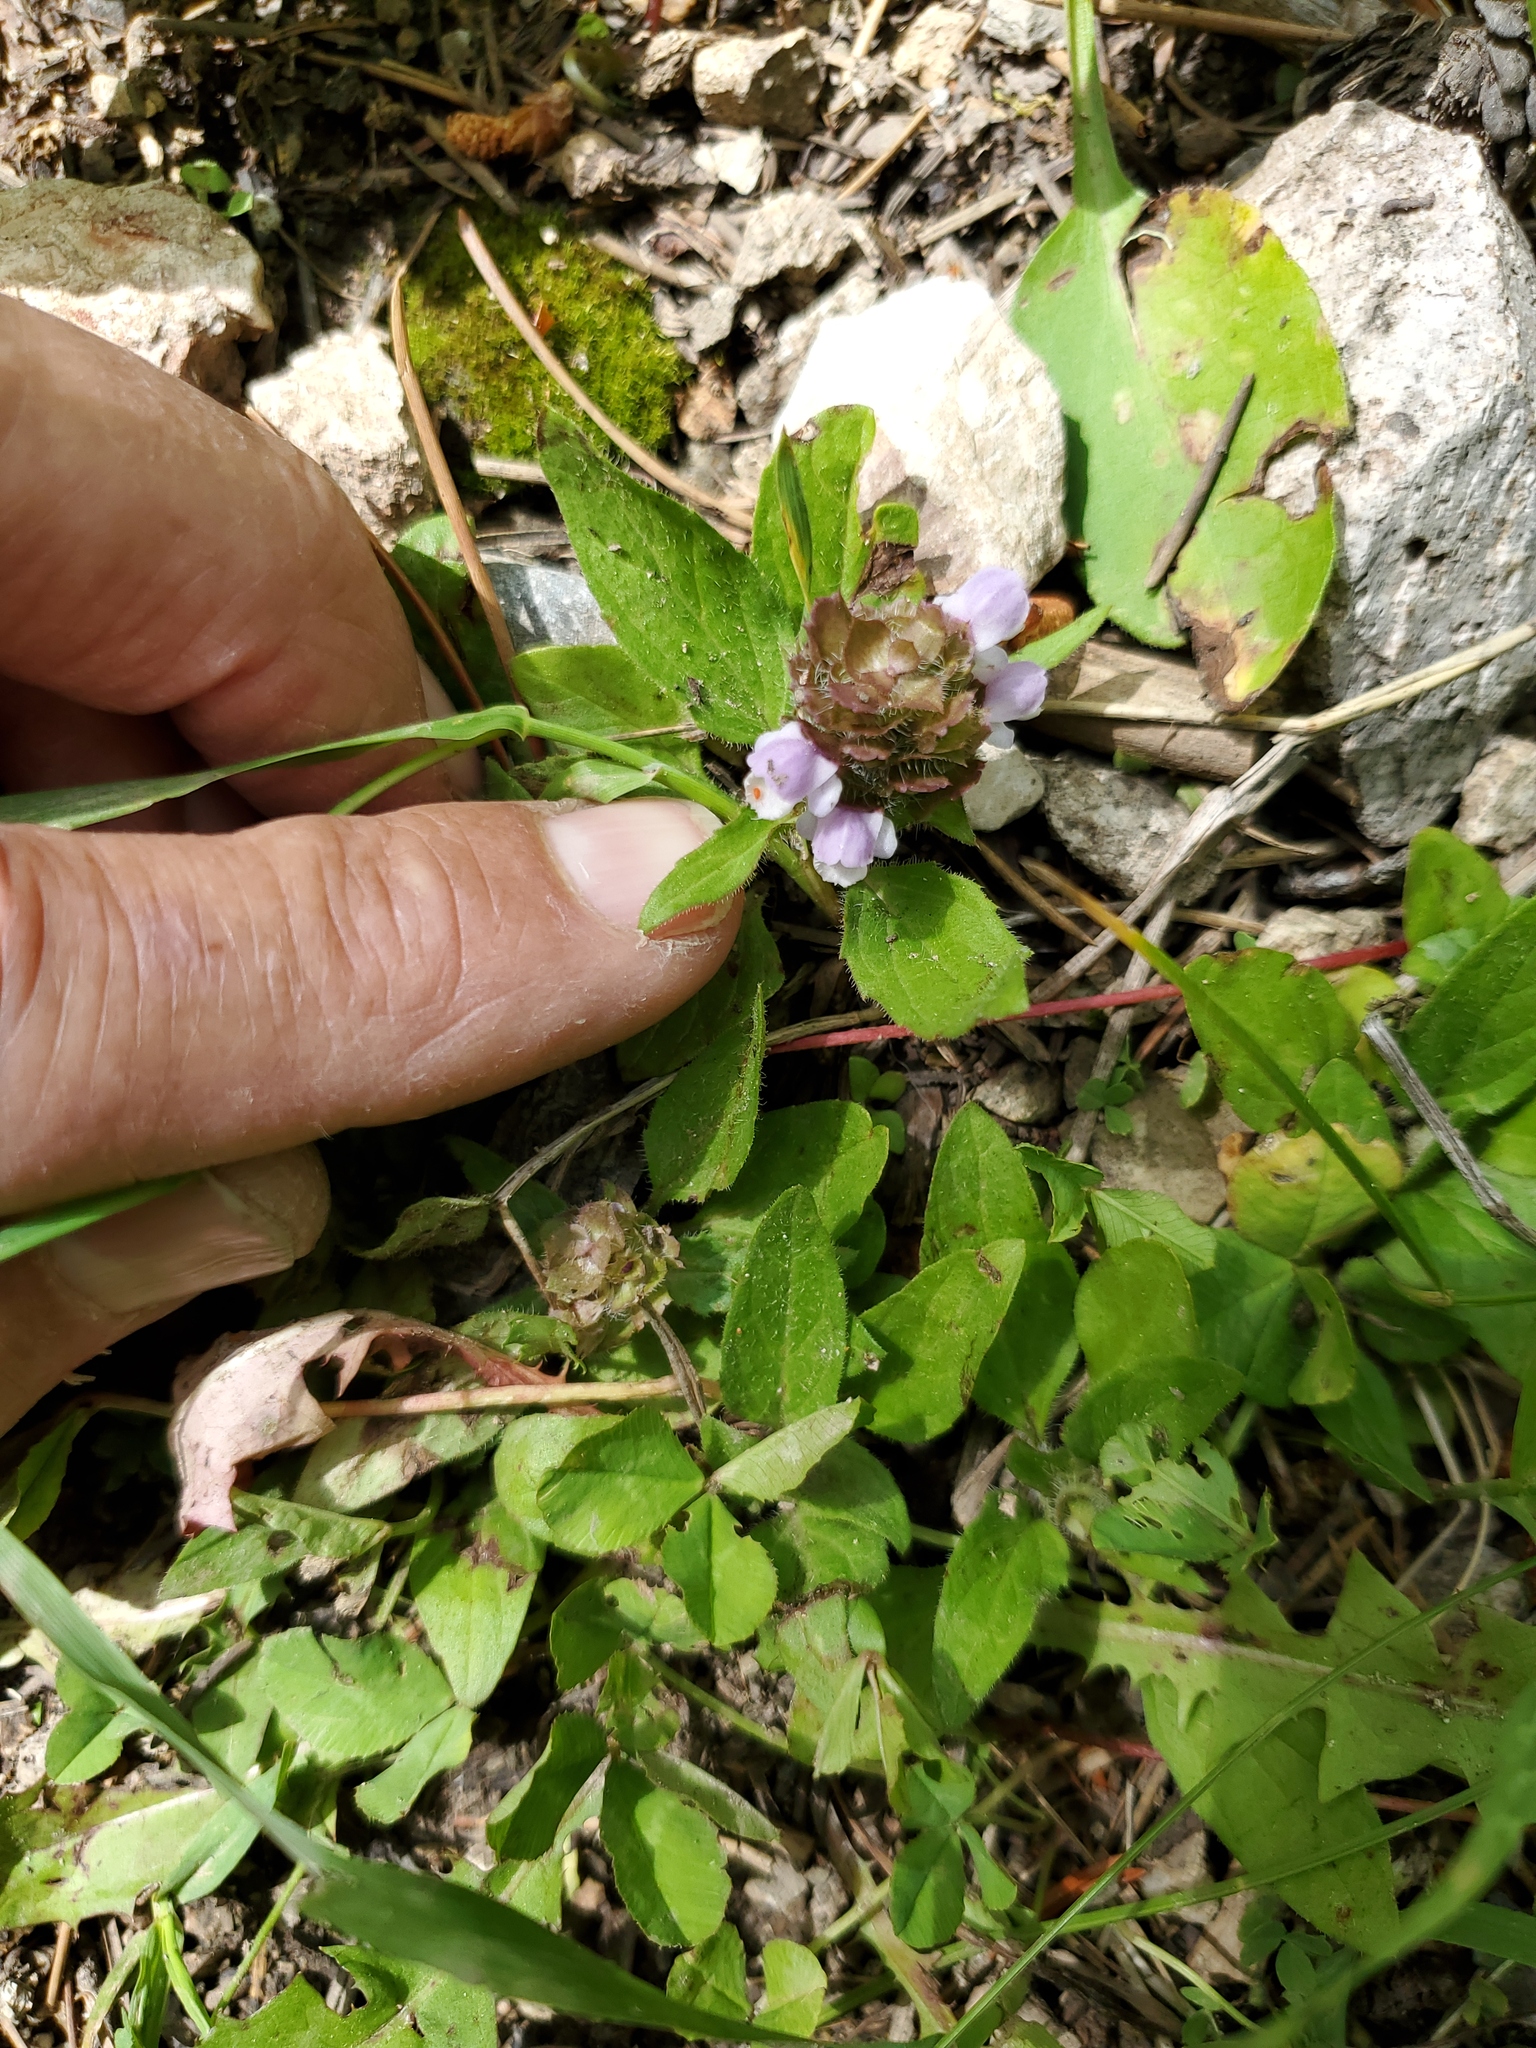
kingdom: Plantae
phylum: Tracheophyta
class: Magnoliopsida
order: Lamiales
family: Lamiaceae
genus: Prunella
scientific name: Prunella vulgaris
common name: Heal-all
